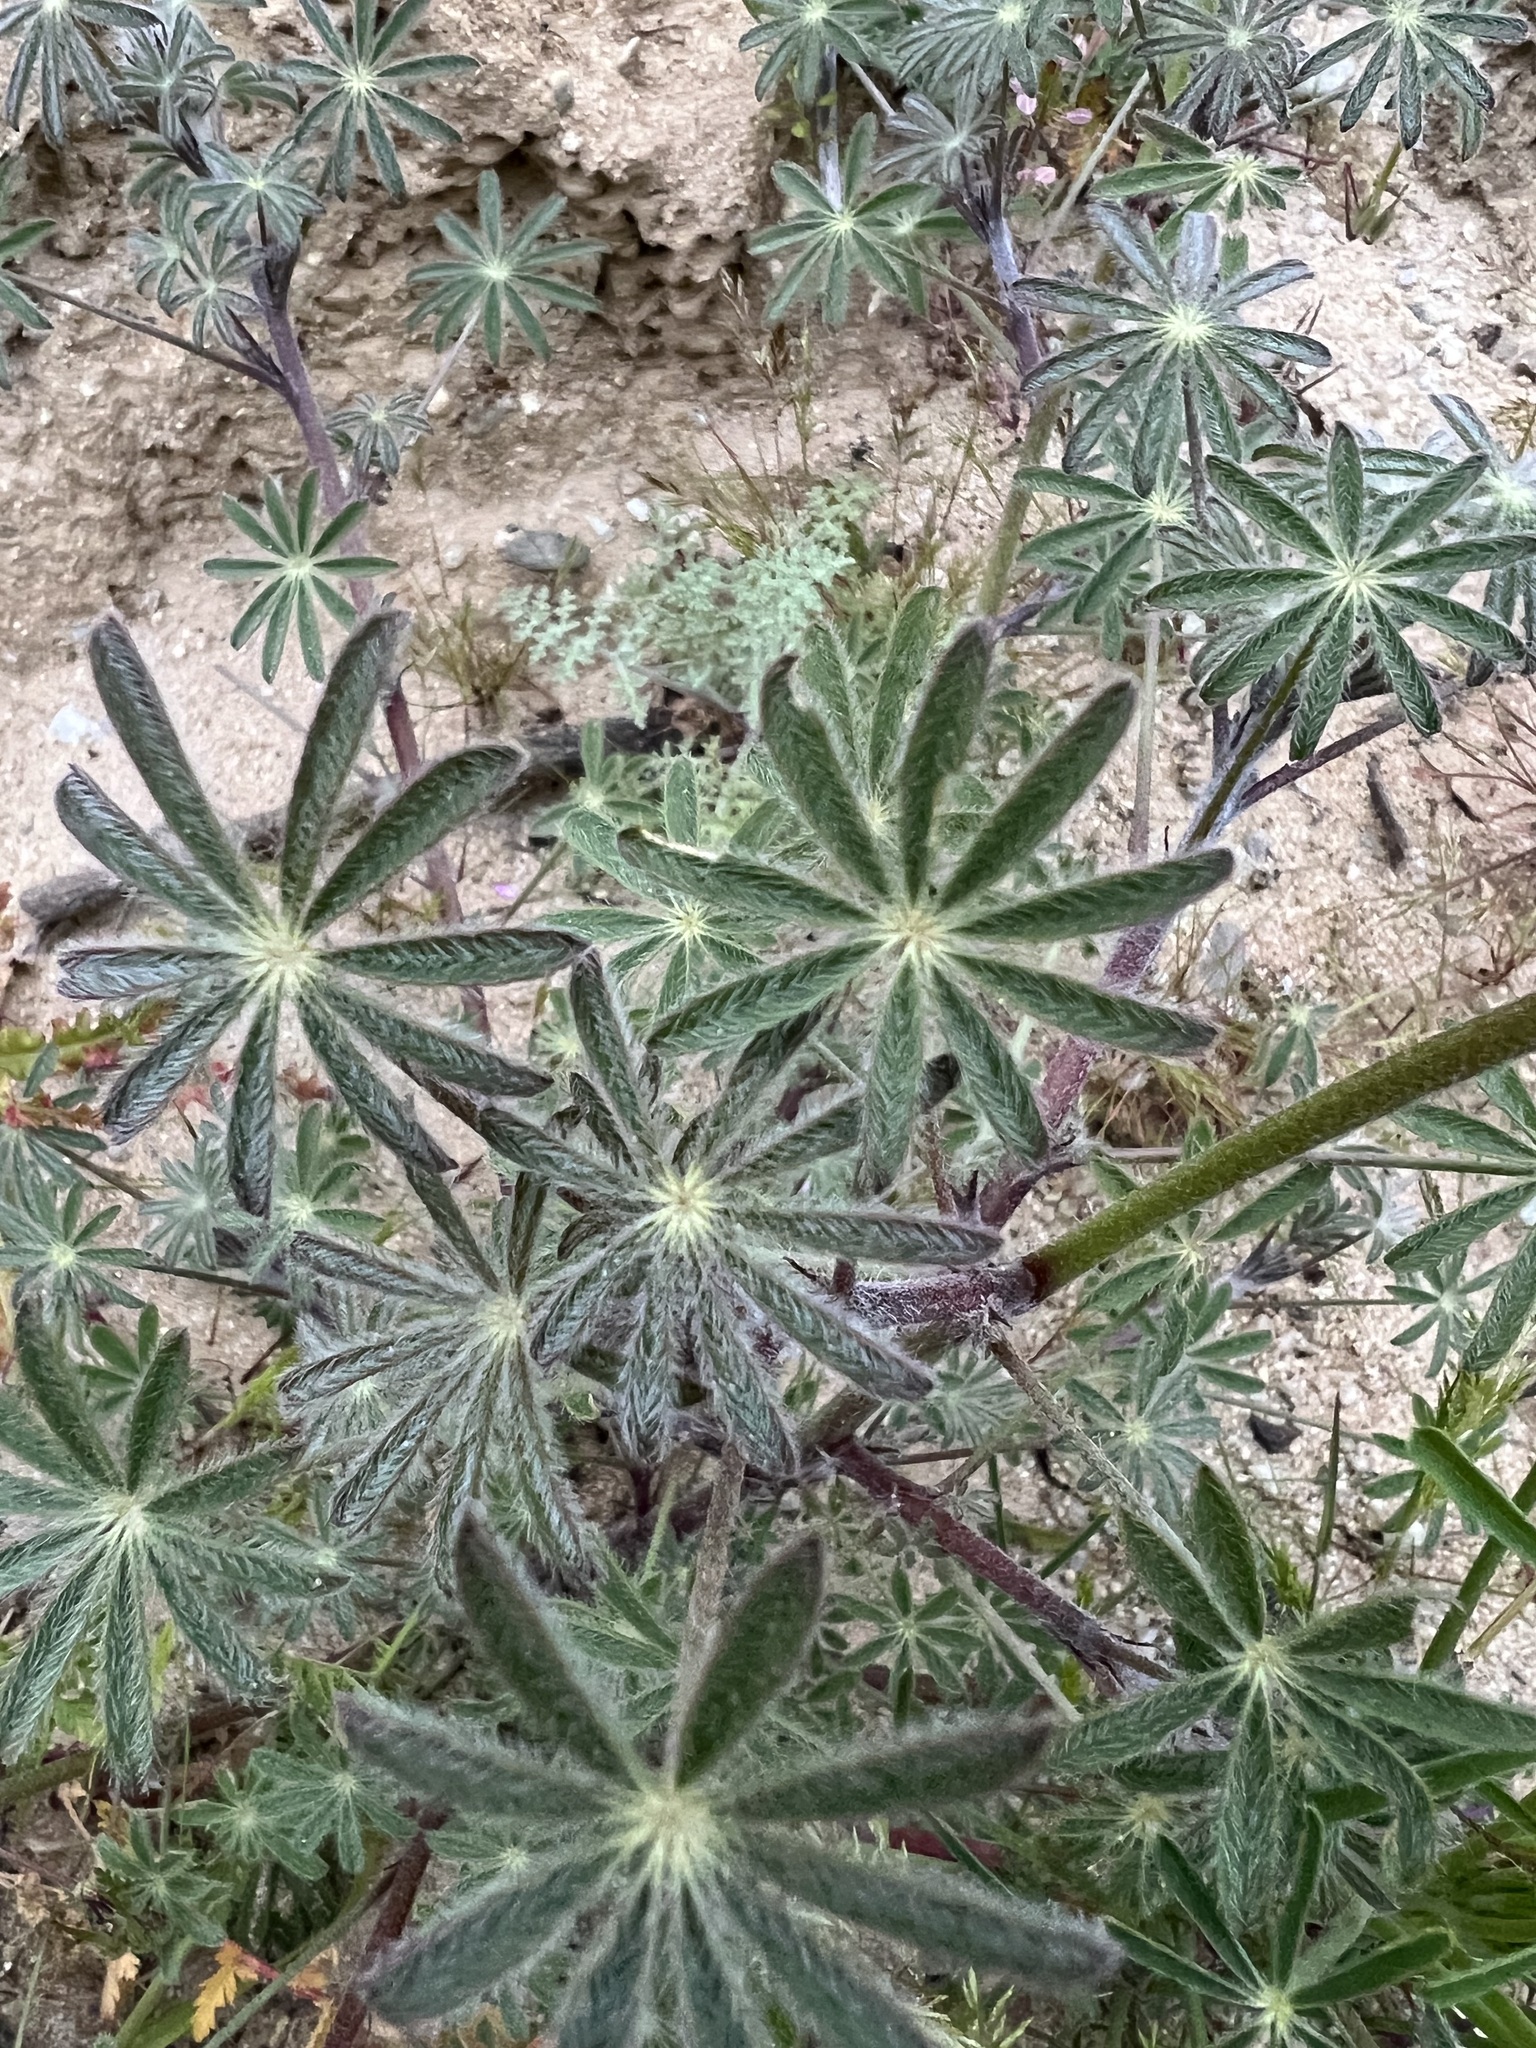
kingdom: Plantae
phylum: Tracheophyta
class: Magnoliopsida
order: Fabales
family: Fabaceae
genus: Lupinus
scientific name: Lupinus sparsiflorus
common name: Coulter's lupine
